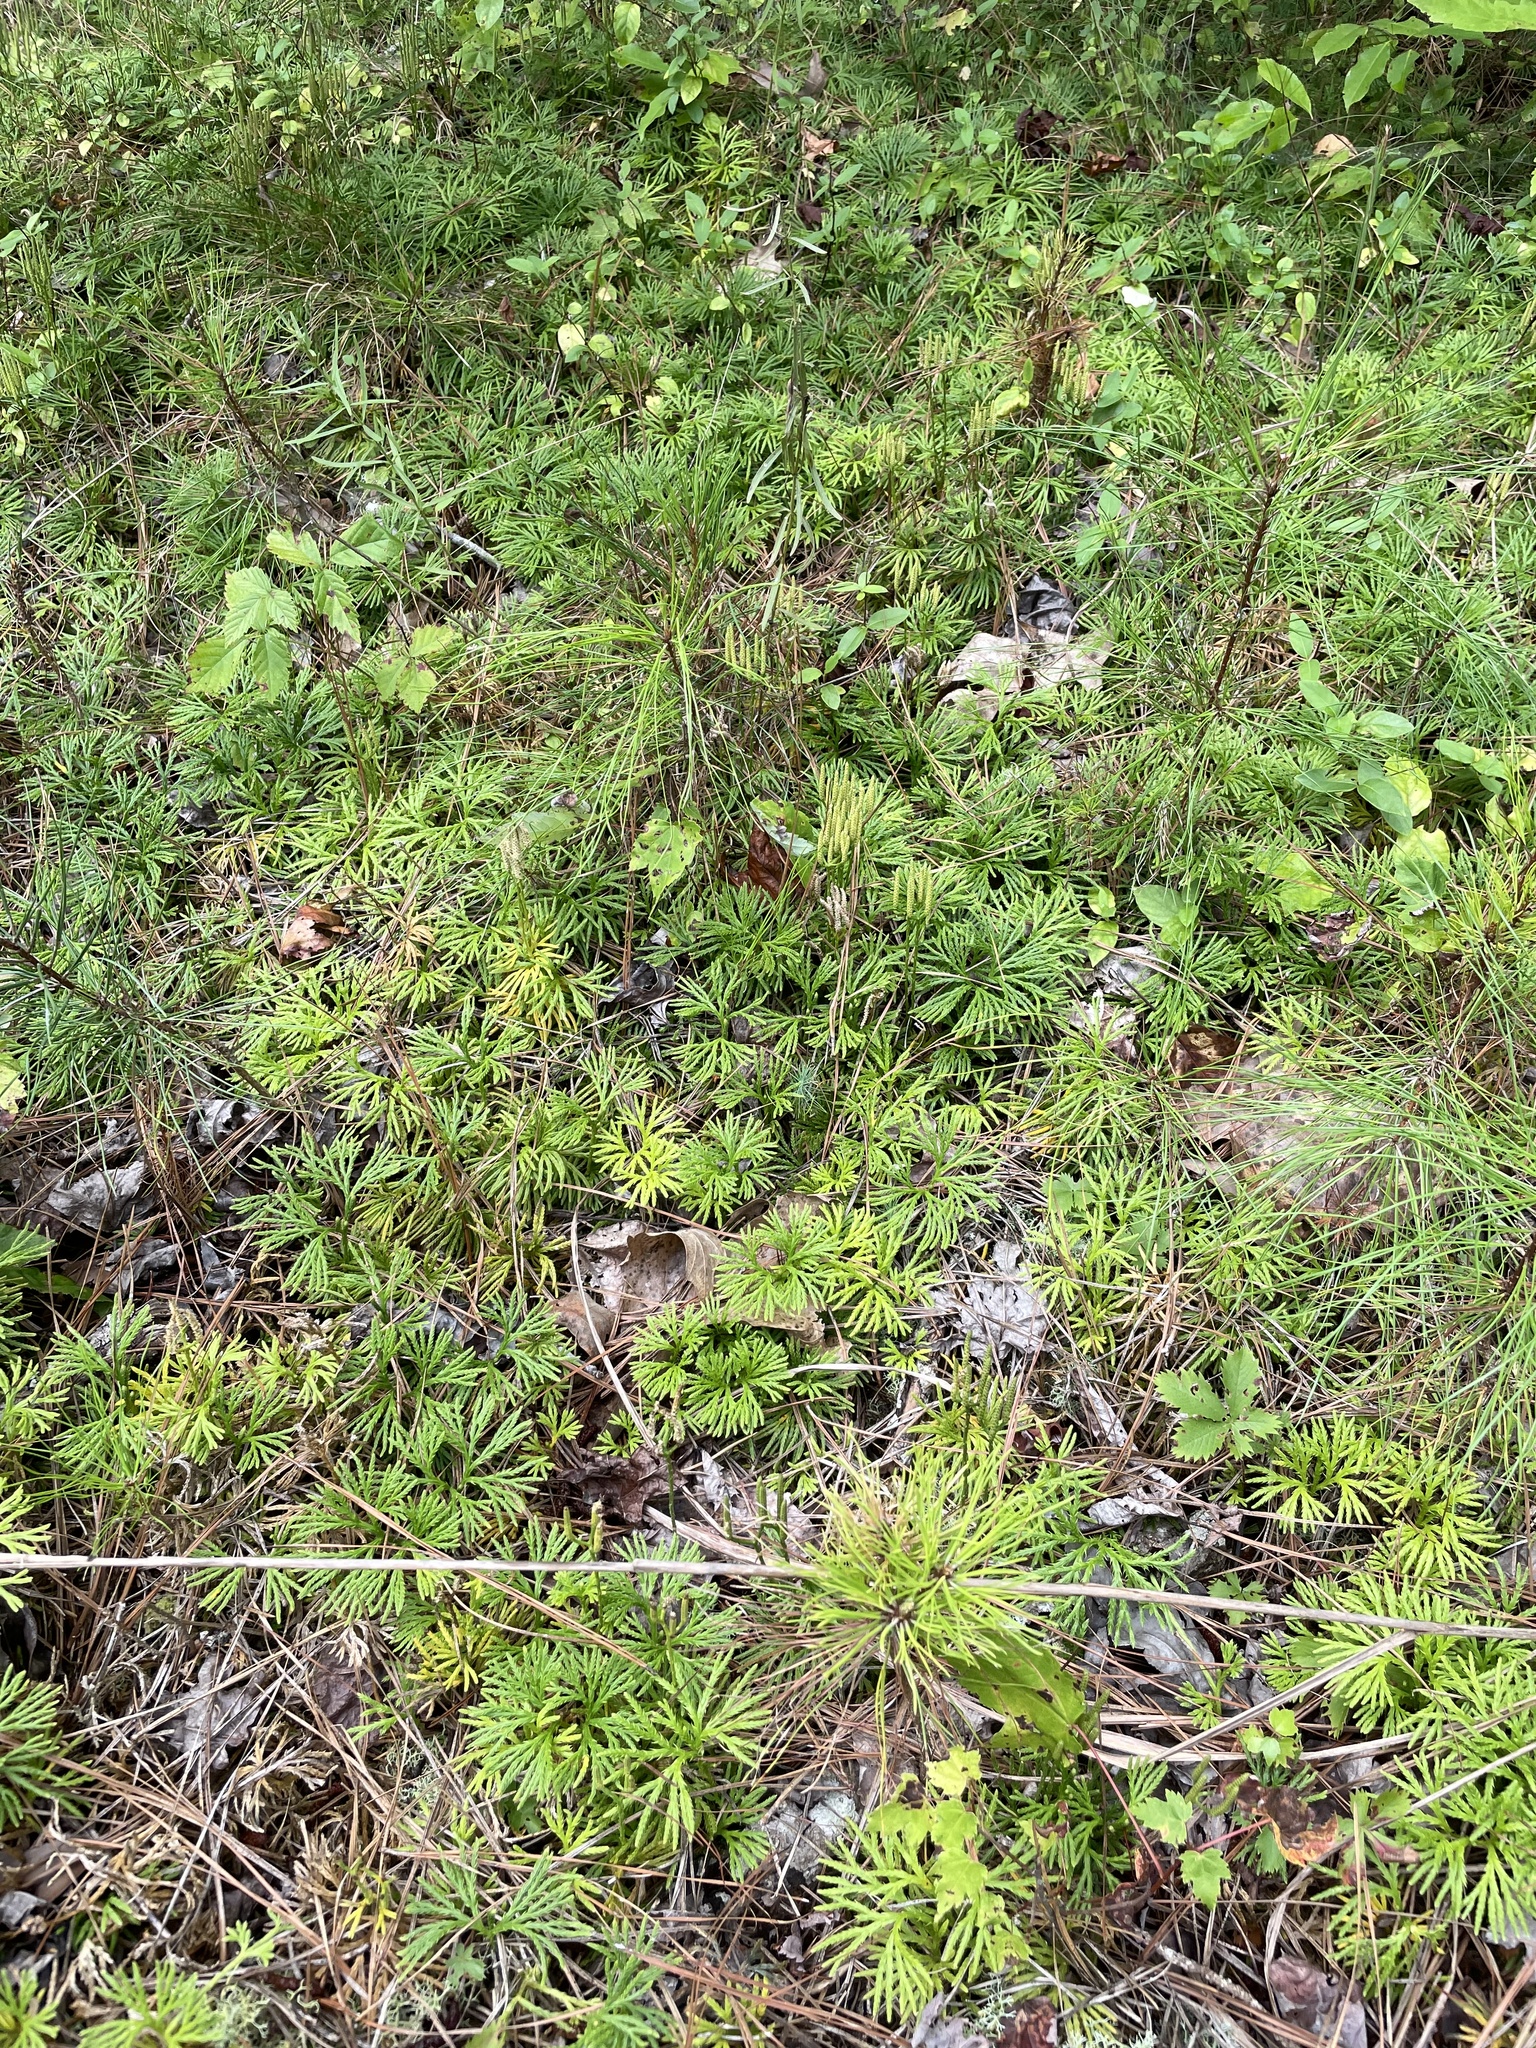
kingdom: Plantae
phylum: Tracheophyta
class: Lycopodiopsida
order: Lycopodiales
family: Lycopodiaceae
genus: Diphasiastrum
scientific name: Diphasiastrum digitatum
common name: Southern running-pine
